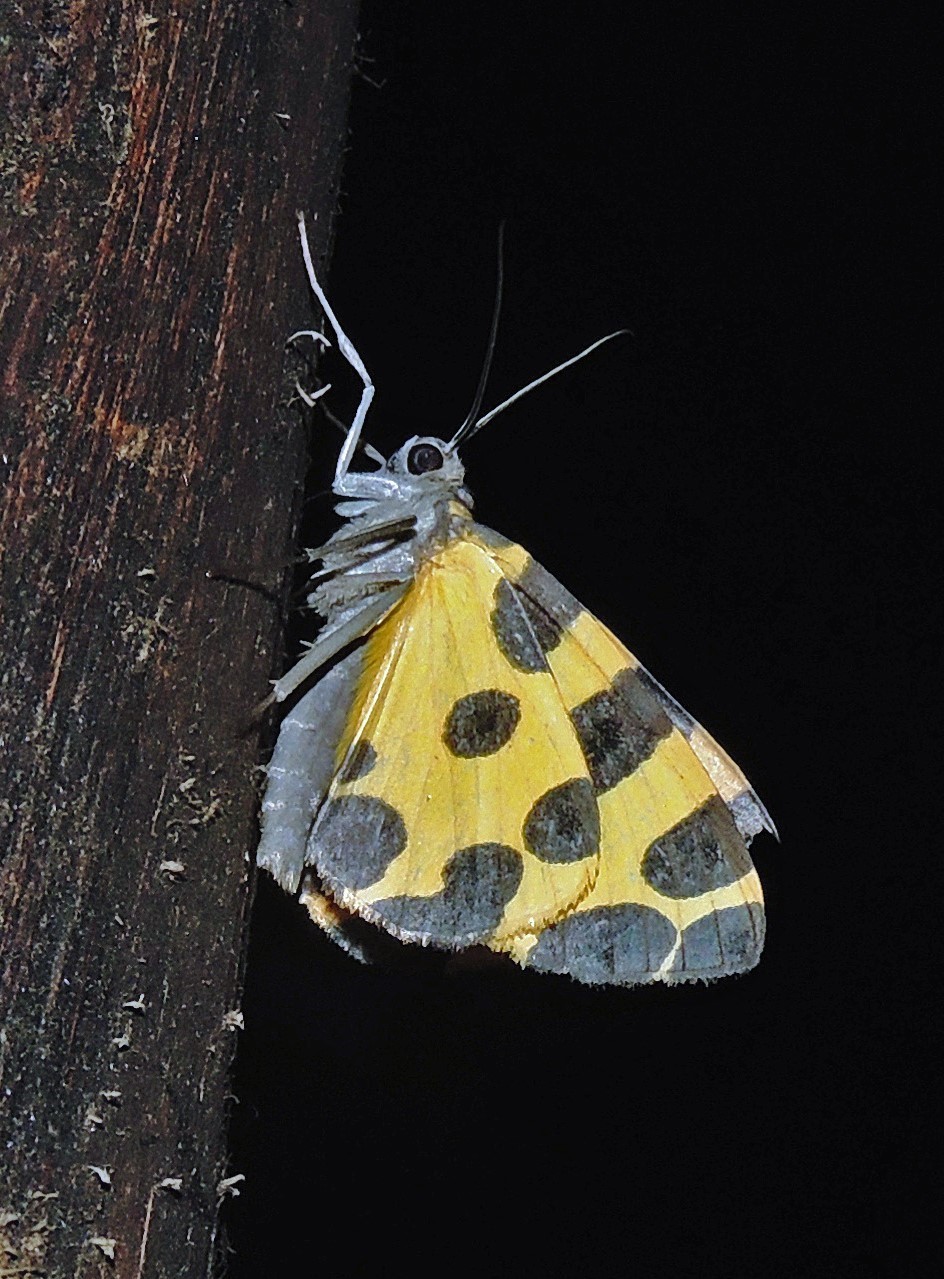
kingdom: Animalia
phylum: Arthropoda
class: Insecta
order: Lepidoptera
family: Geometridae
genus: Pantherodes
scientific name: Pantherodes pardalaria
